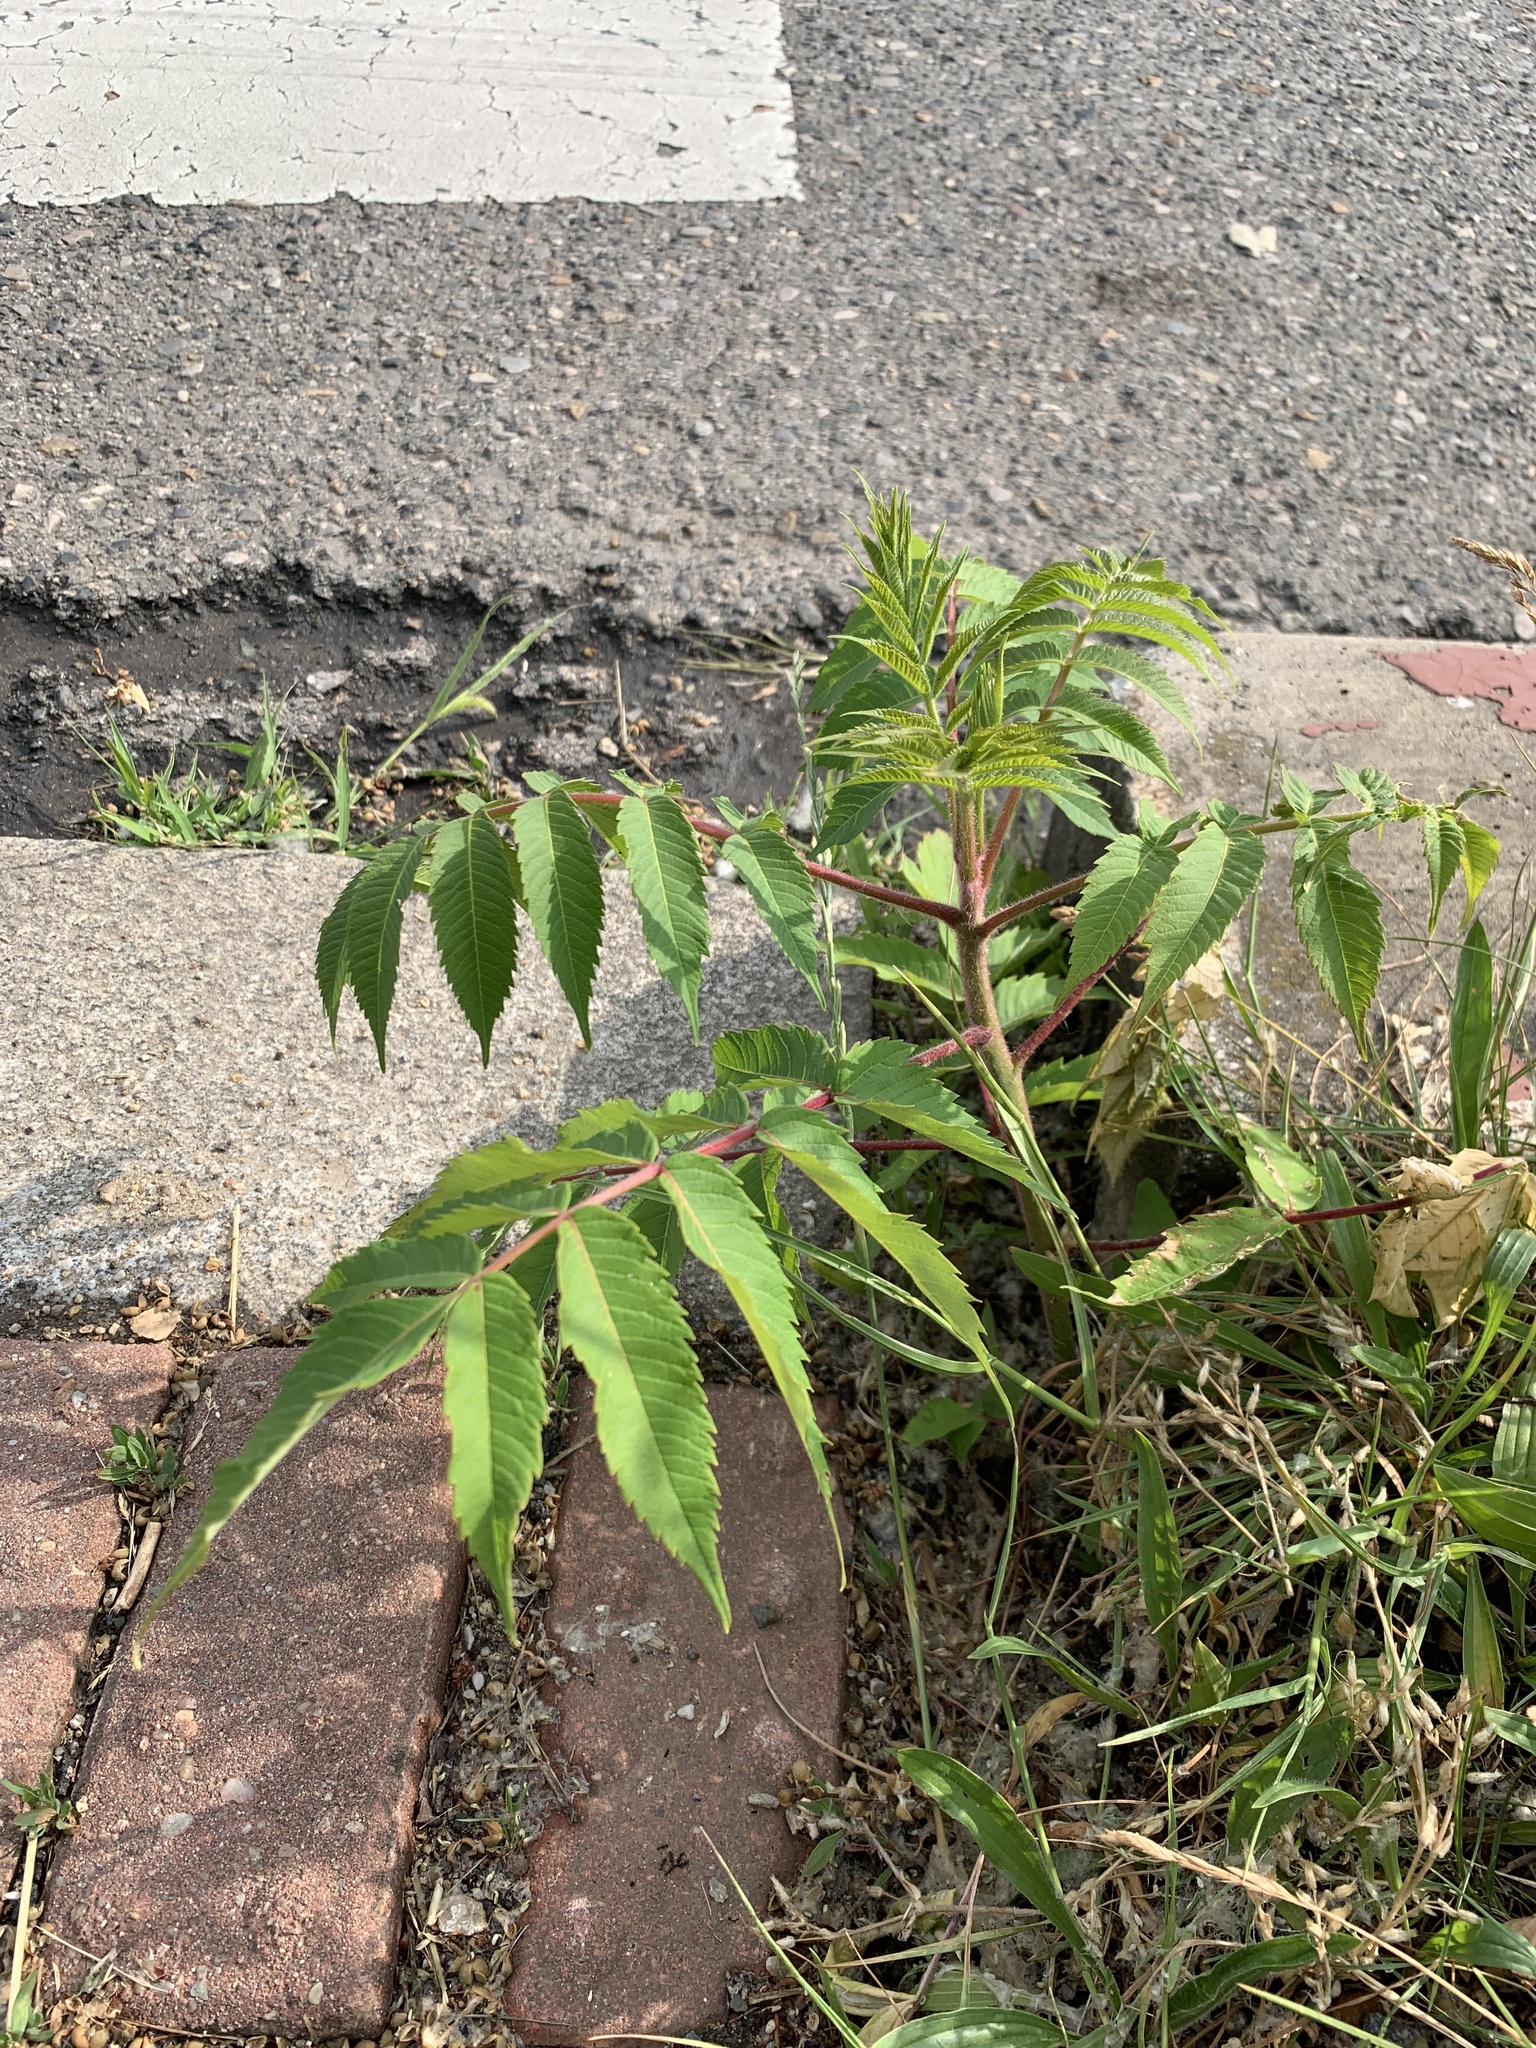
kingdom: Plantae
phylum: Tracheophyta
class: Magnoliopsida
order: Sapindales
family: Anacardiaceae
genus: Rhus
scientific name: Rhus typhina
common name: Staghorn sumac
